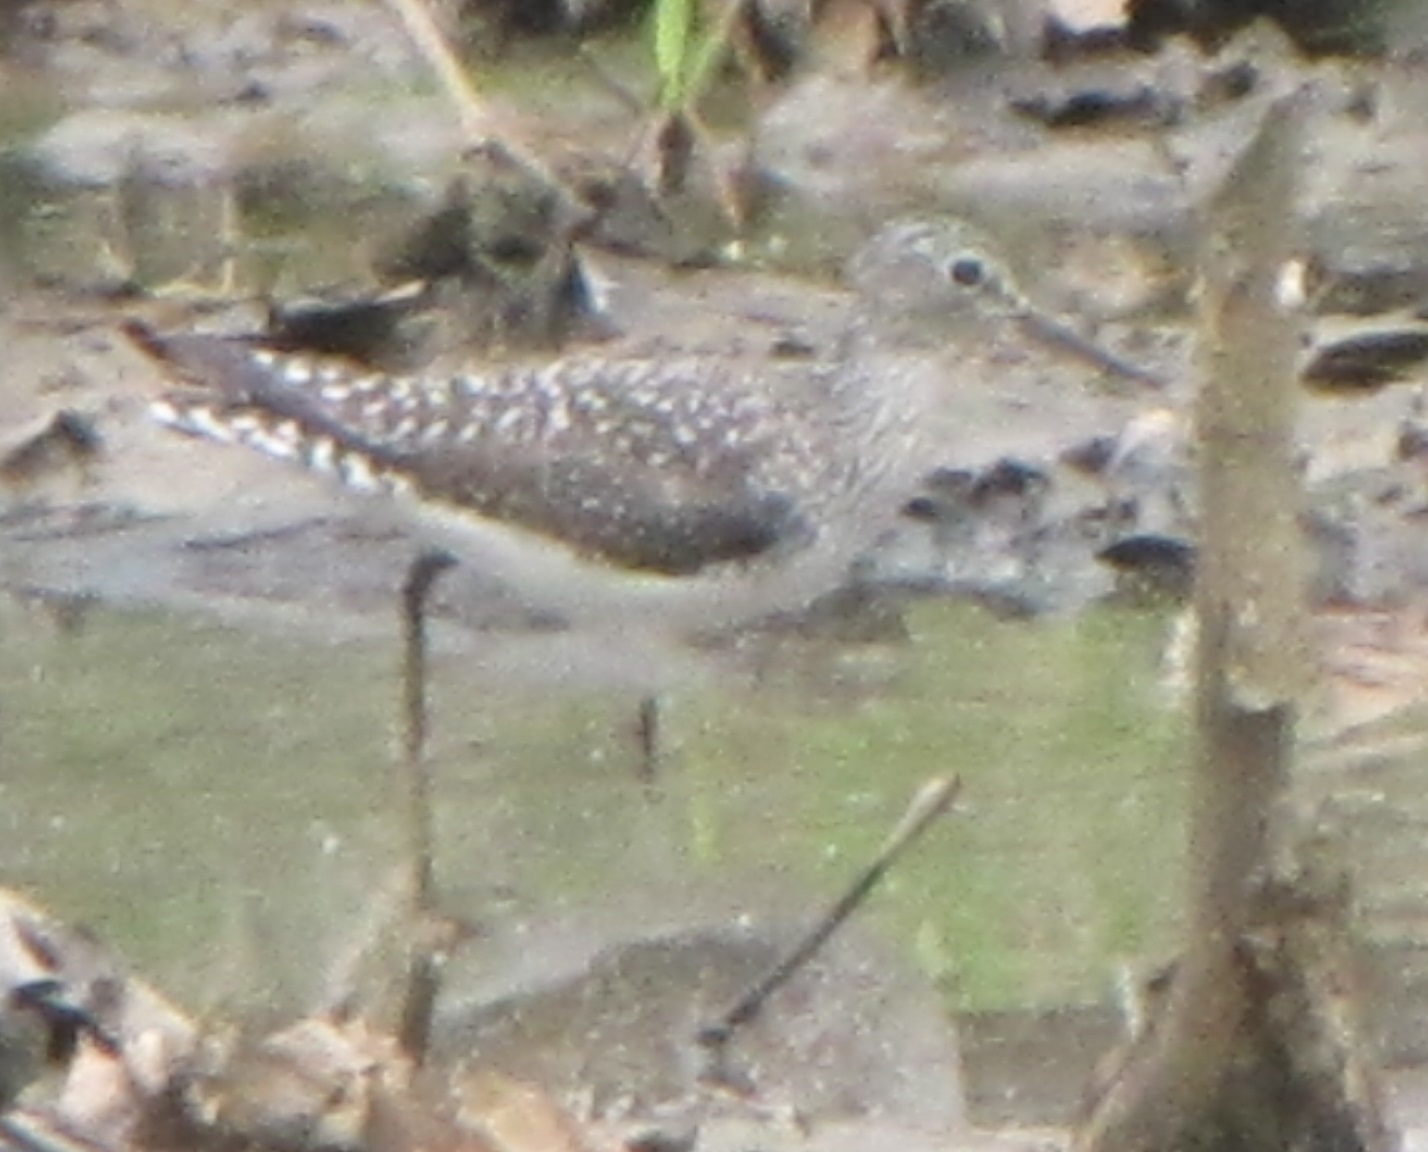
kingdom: Animalia
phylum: Chordata
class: Aves
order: Charadriiformes
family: Scolopacidae
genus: Tringa
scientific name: Tringa solitaria
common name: Solitary sandpiper
